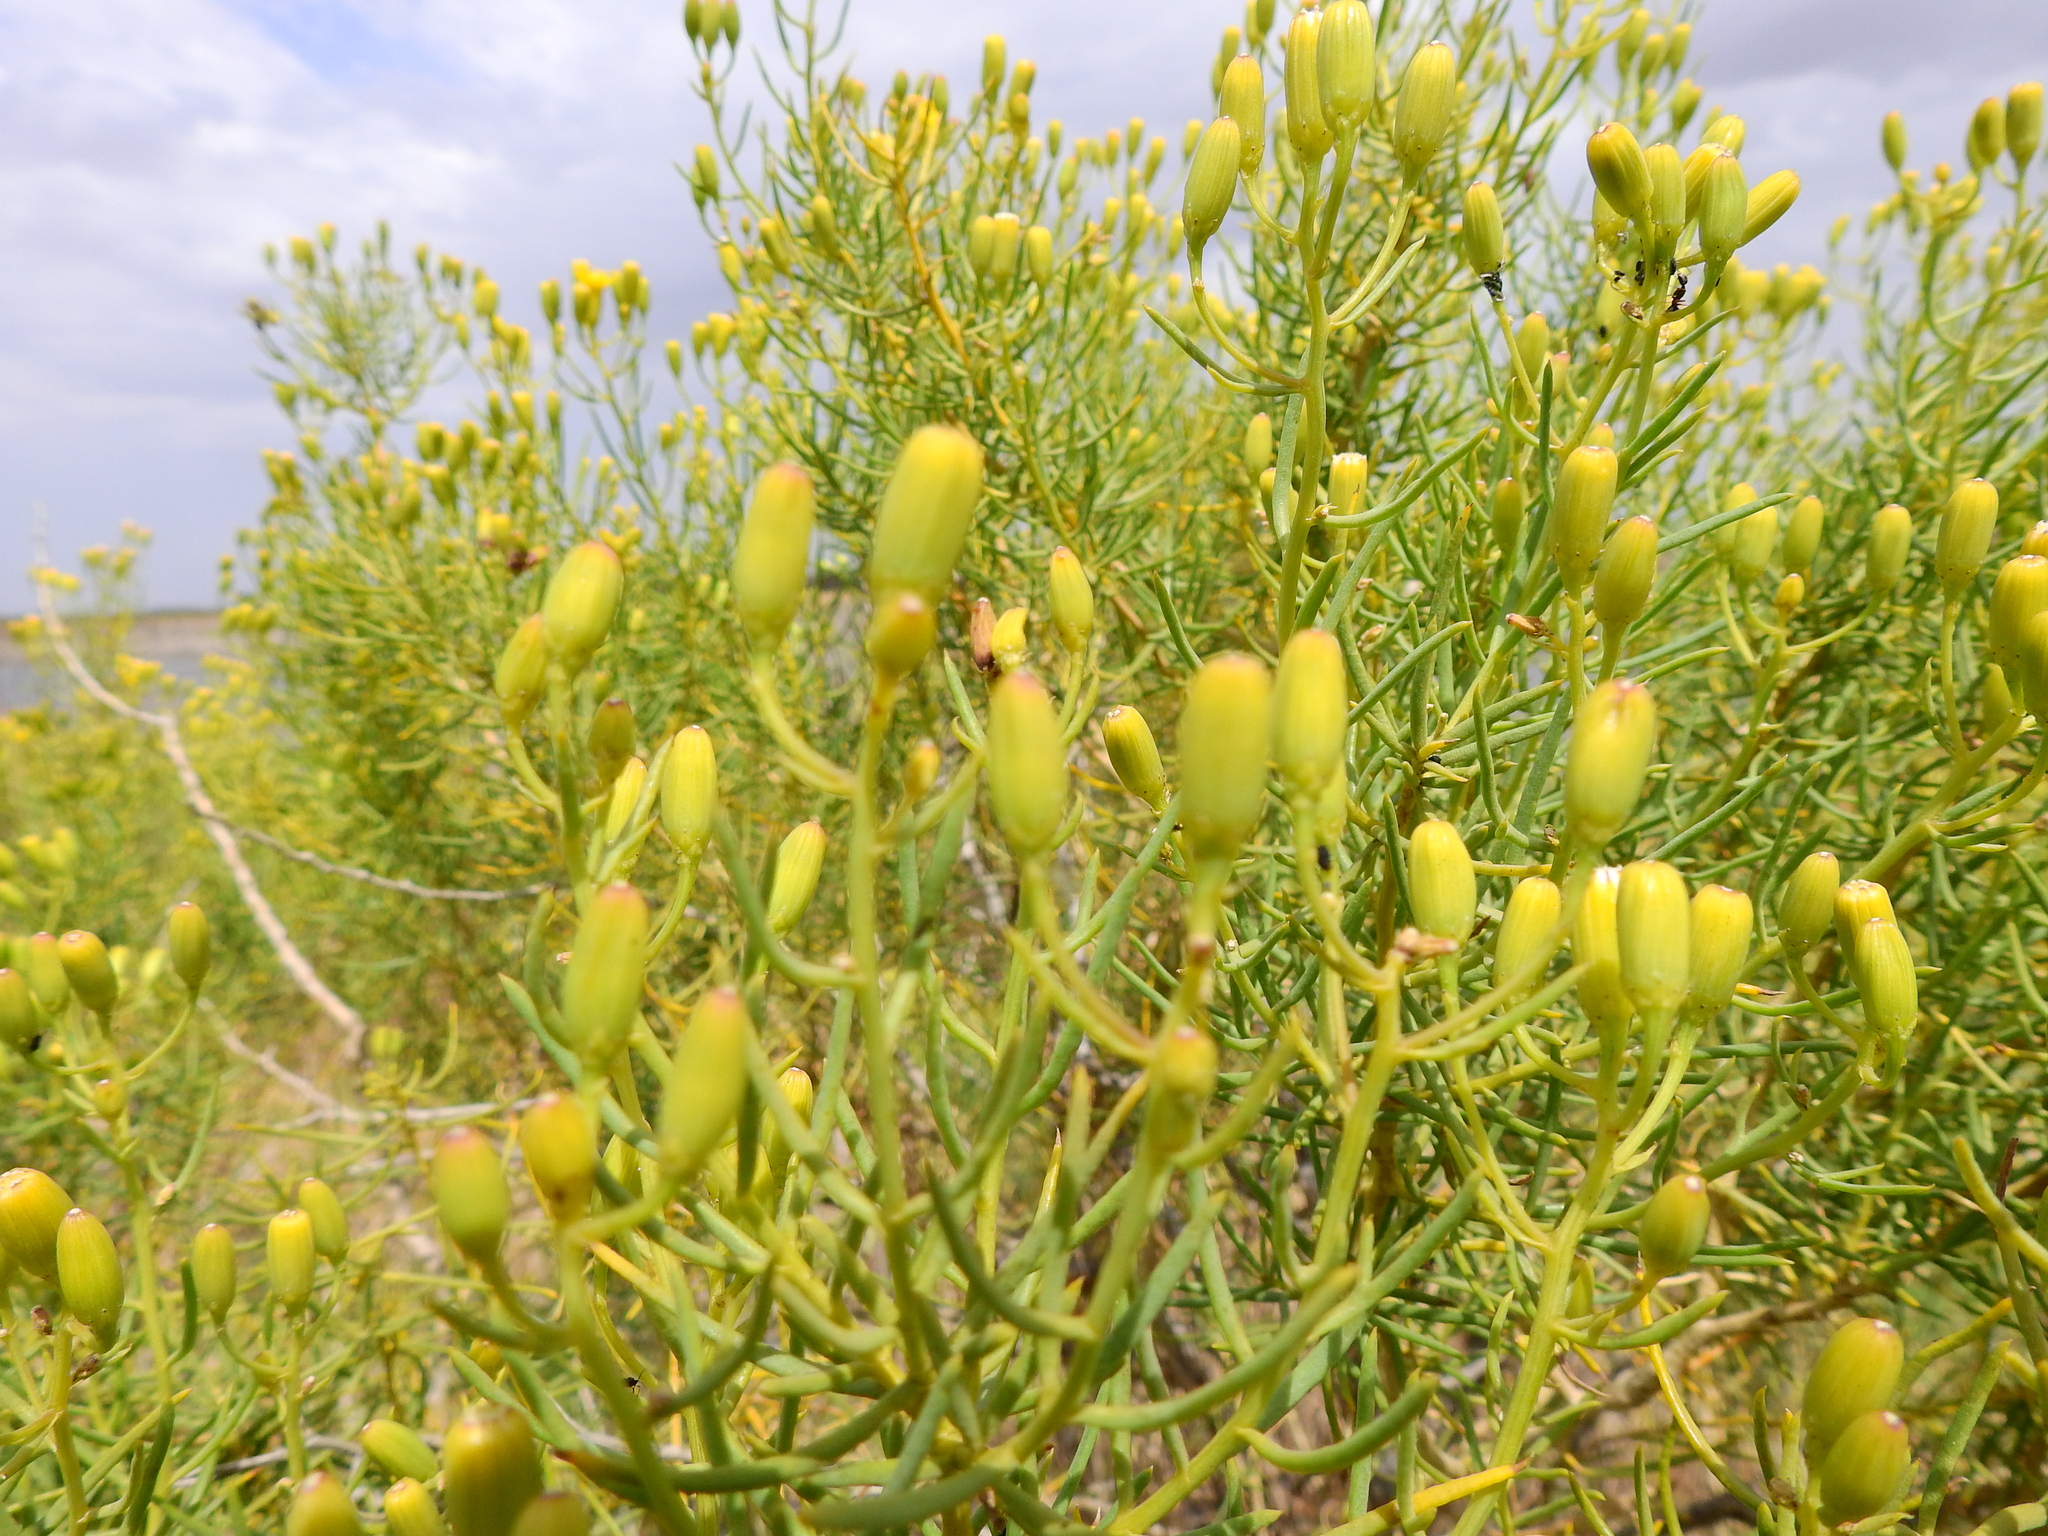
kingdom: Plantae
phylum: Tracheophyta
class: Magnoliopsida
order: Asterales
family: Asteraceae
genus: Senecio
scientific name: Senecio subulatus
